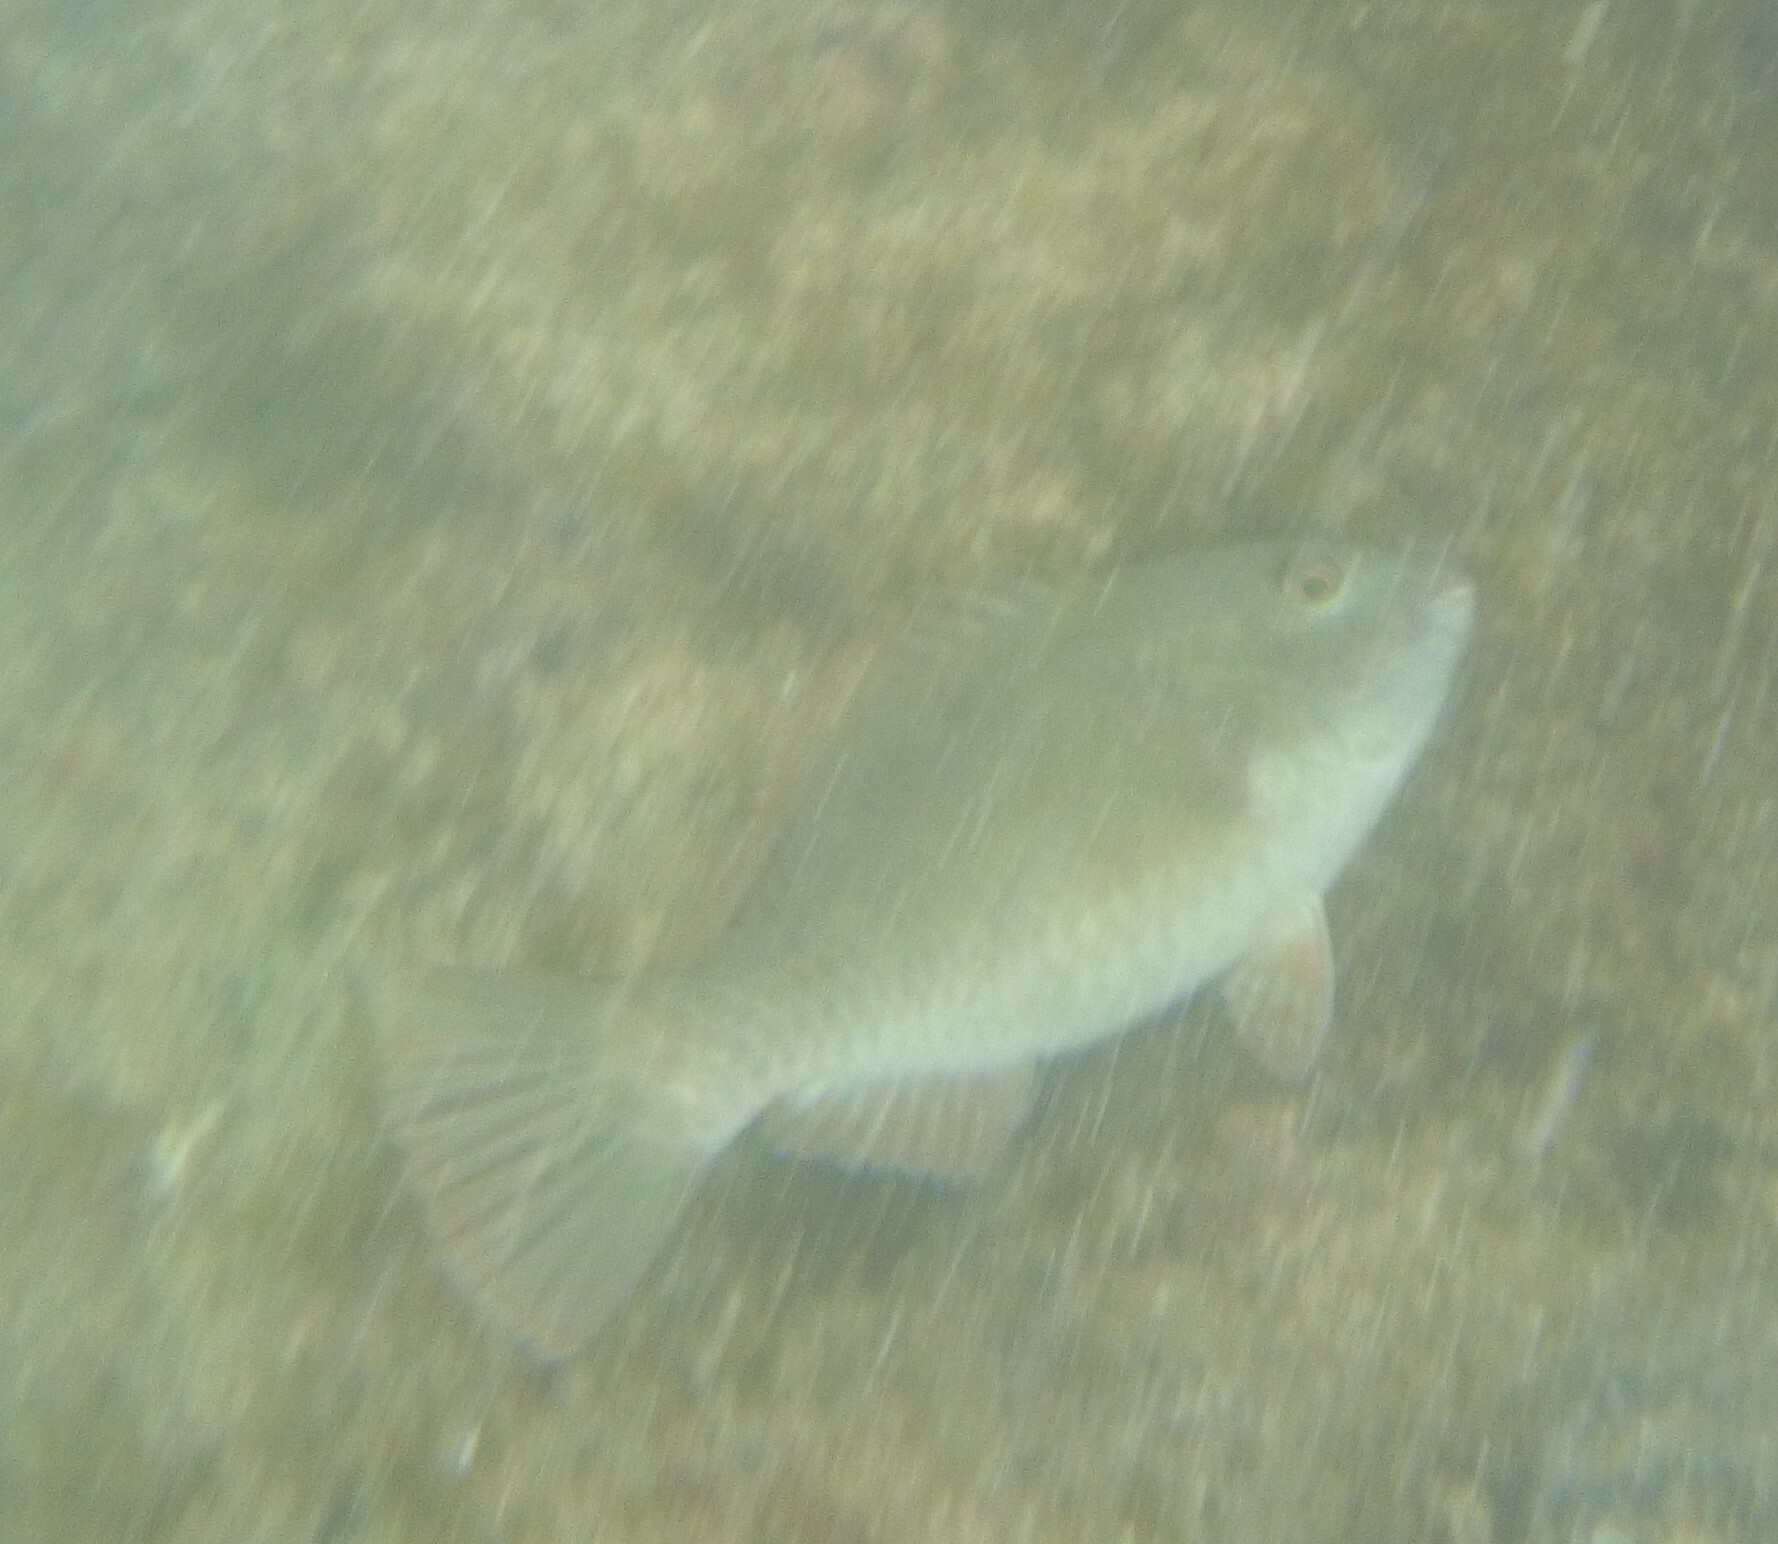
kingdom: Animalia
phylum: Chordata
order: Perciformes
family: Scaridae
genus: Sparisoma
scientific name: Sparisoma cretense
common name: Parrotfish
